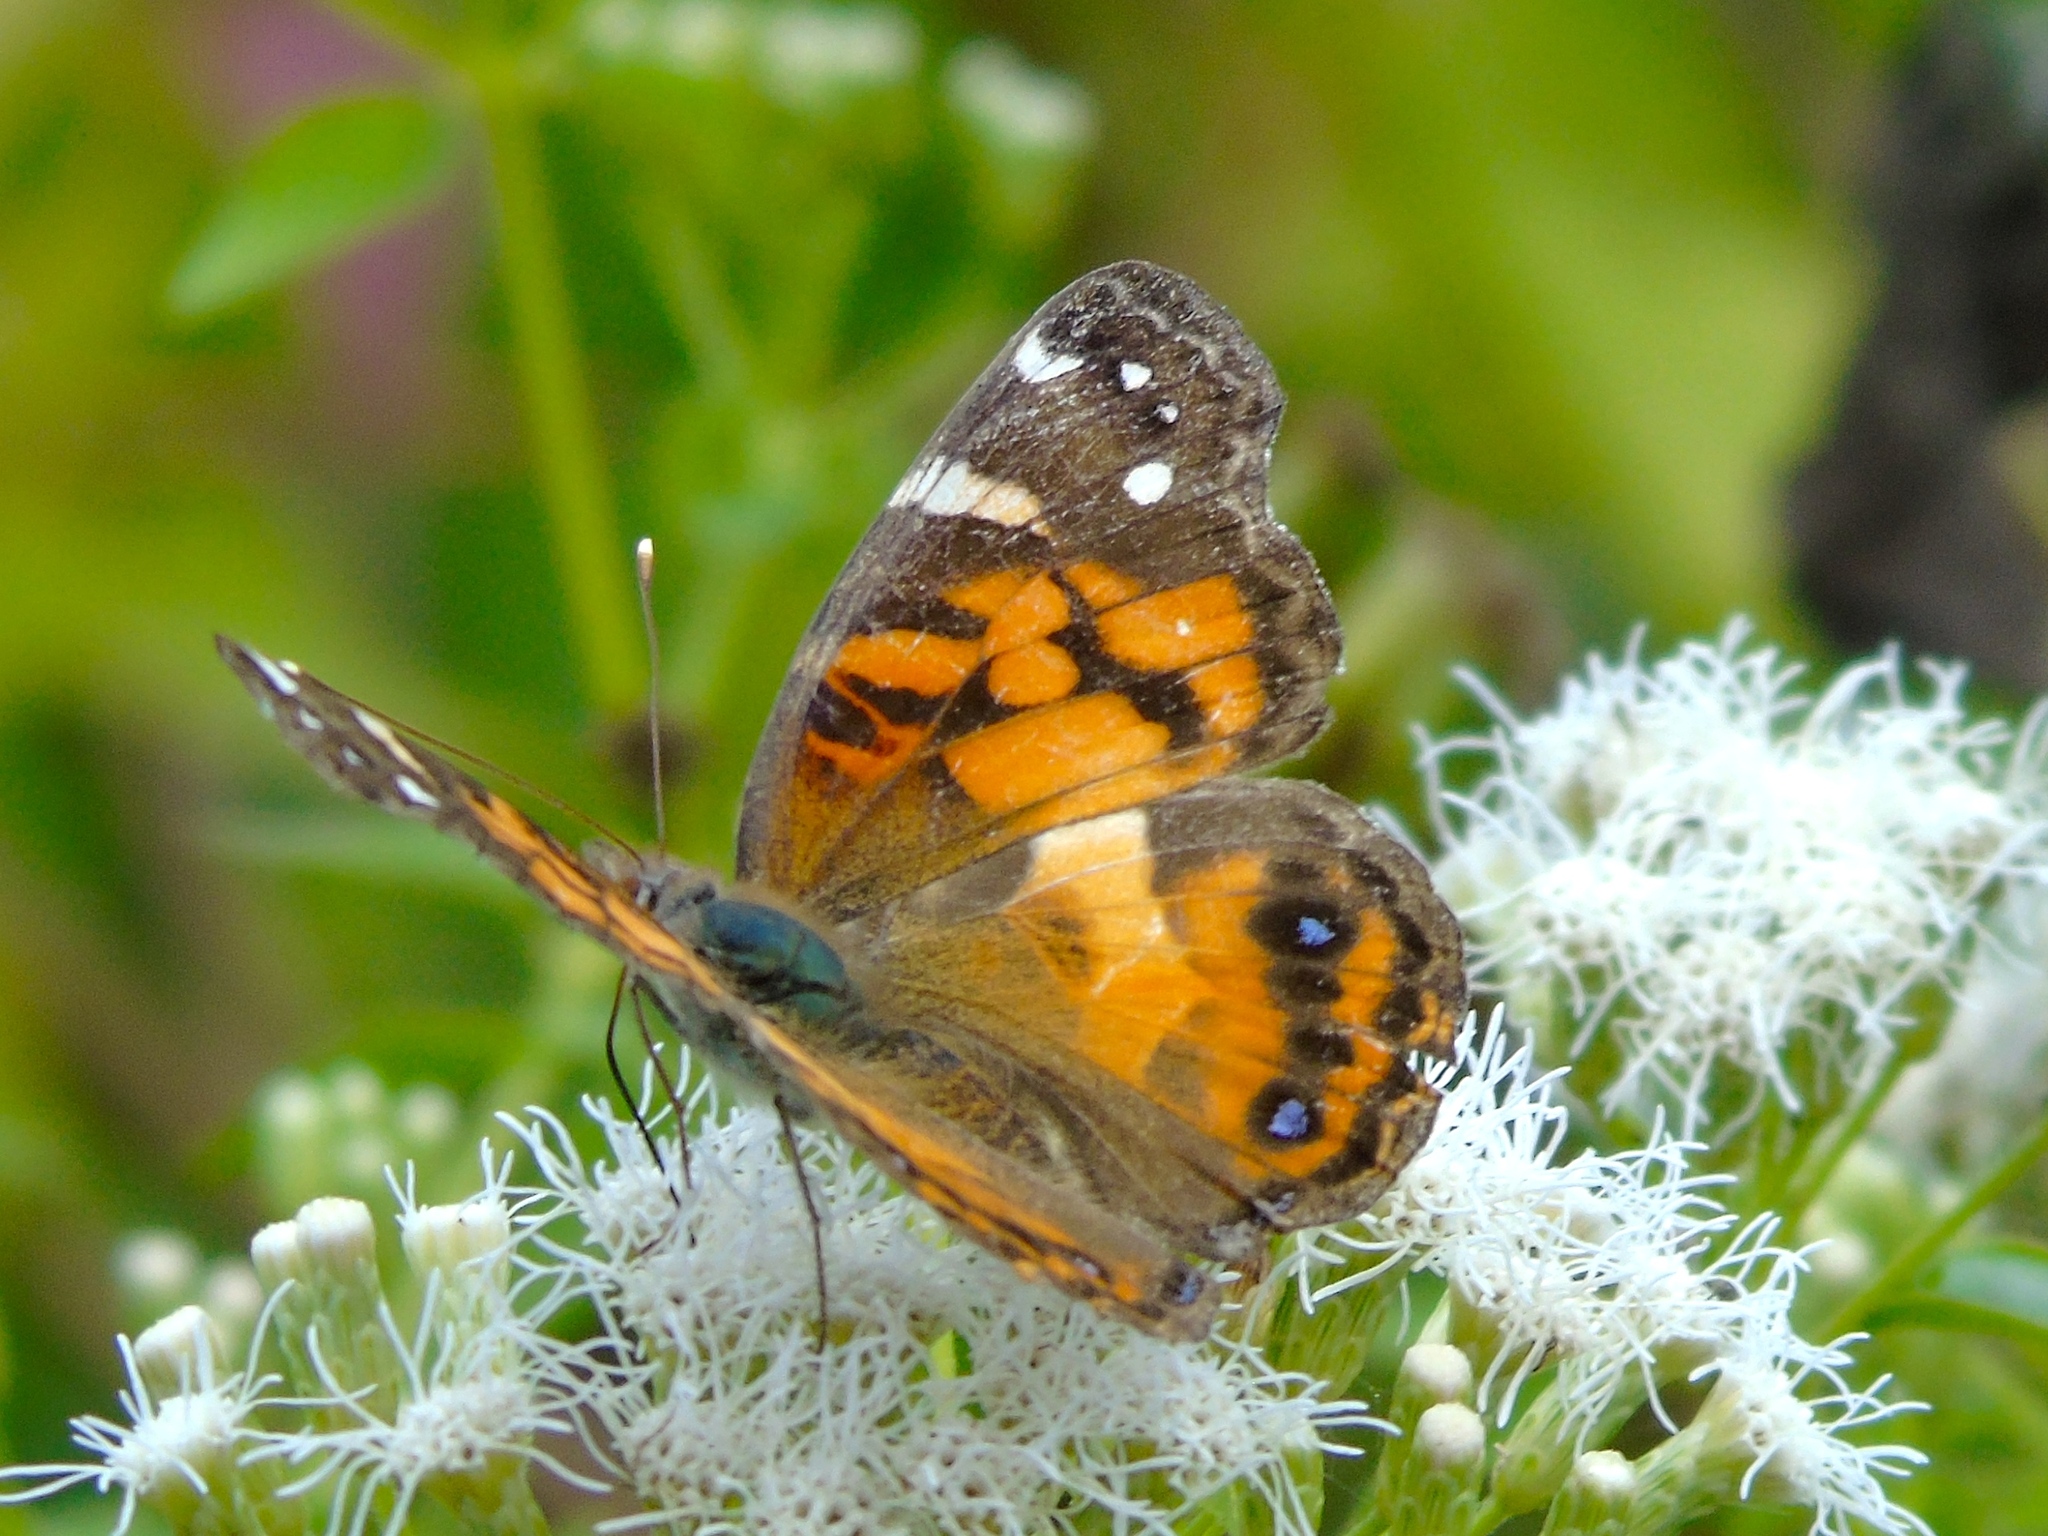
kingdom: Animalia
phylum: Arthropoda
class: Insecta
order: Lepidoptera
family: Nymphalidae
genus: Vanessa
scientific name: Vanessa virginiensis
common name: American lady
